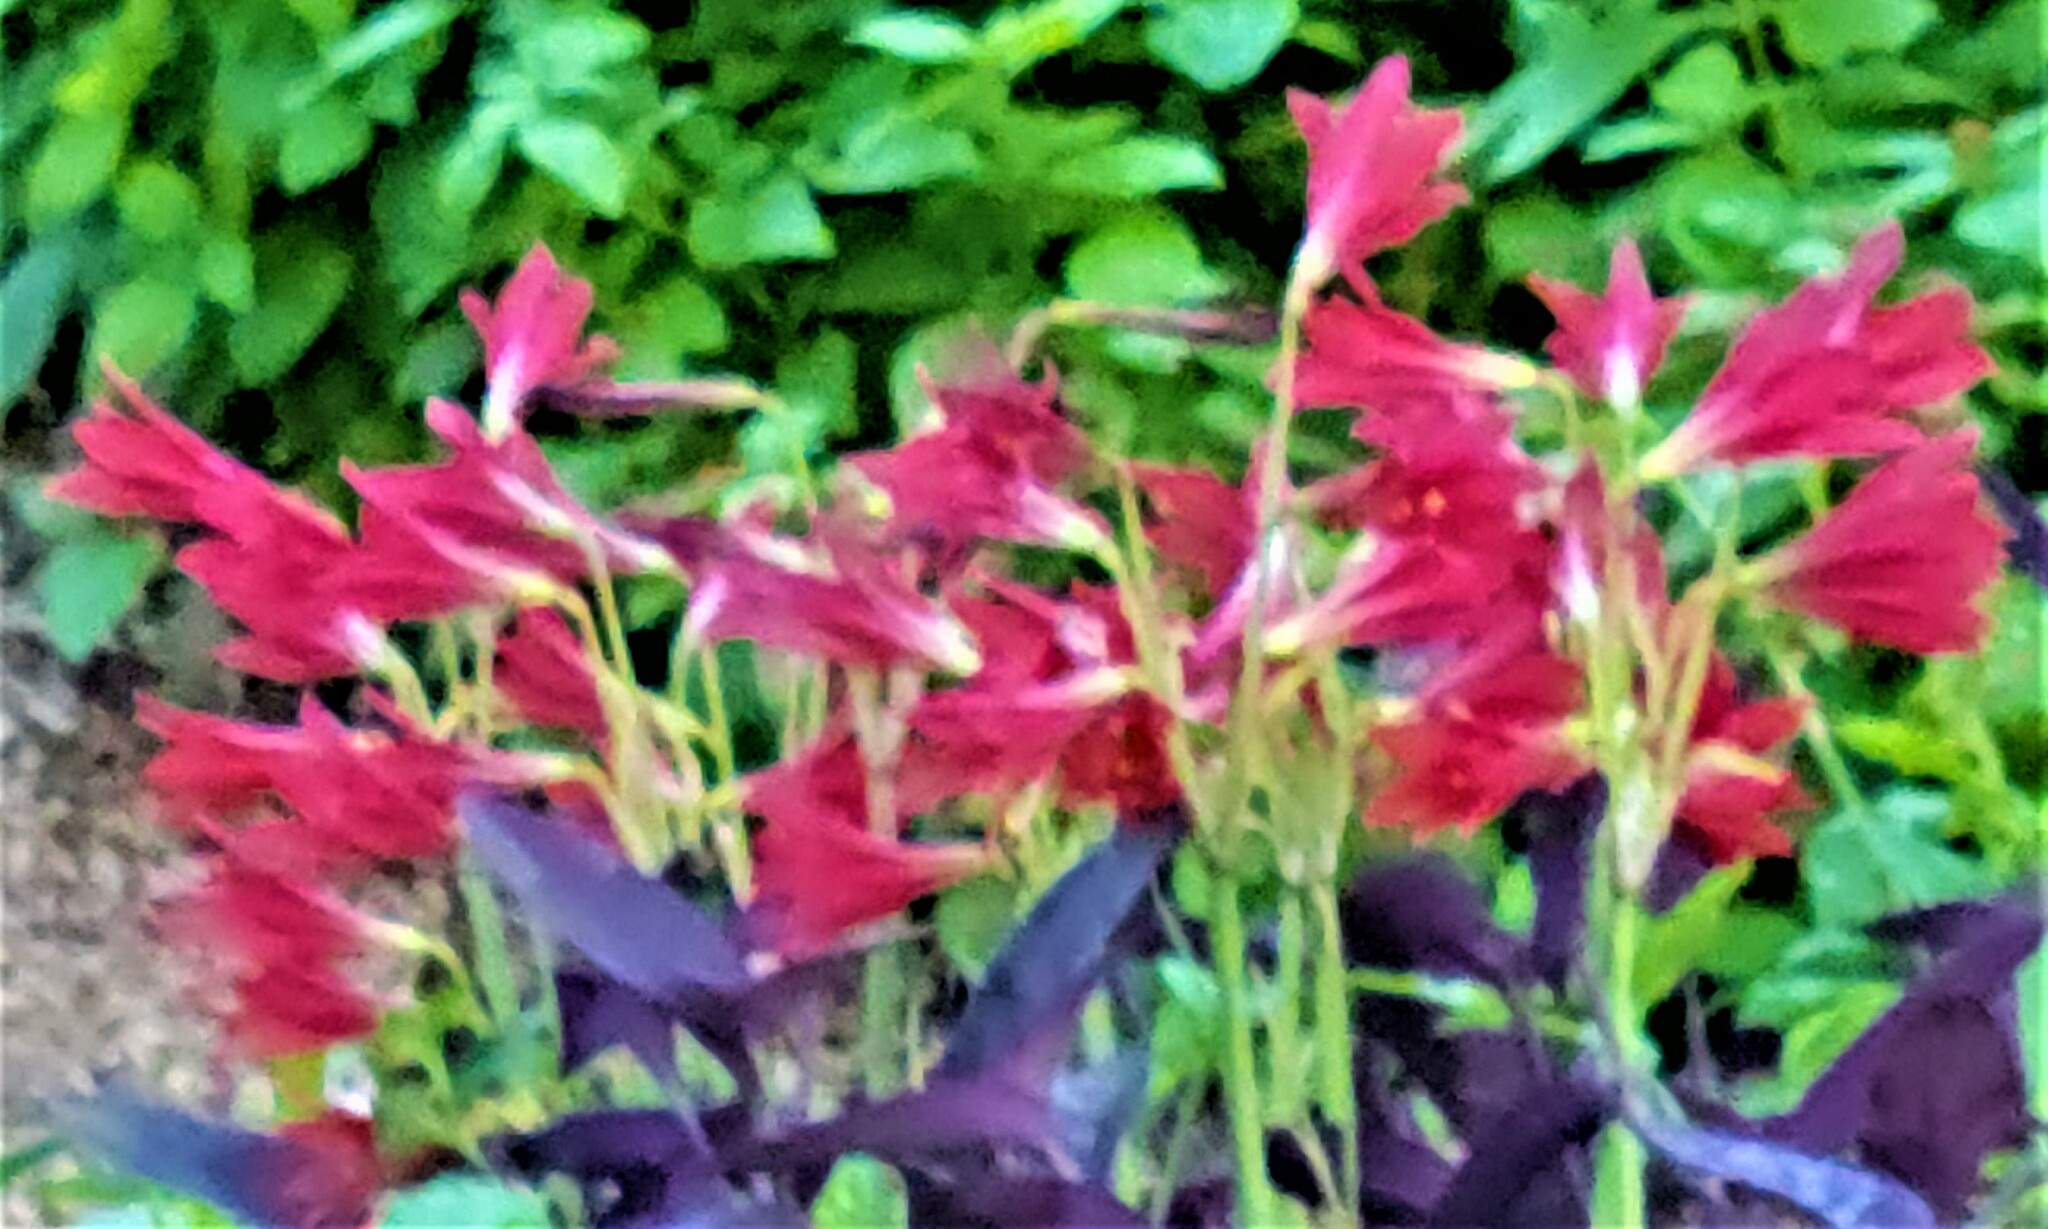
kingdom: Plantae
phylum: Tracheophyta
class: Liliopsida
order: Asparagales
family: Amaryllidaceae
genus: Zephyranthes
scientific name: Zephyranthes bifida
